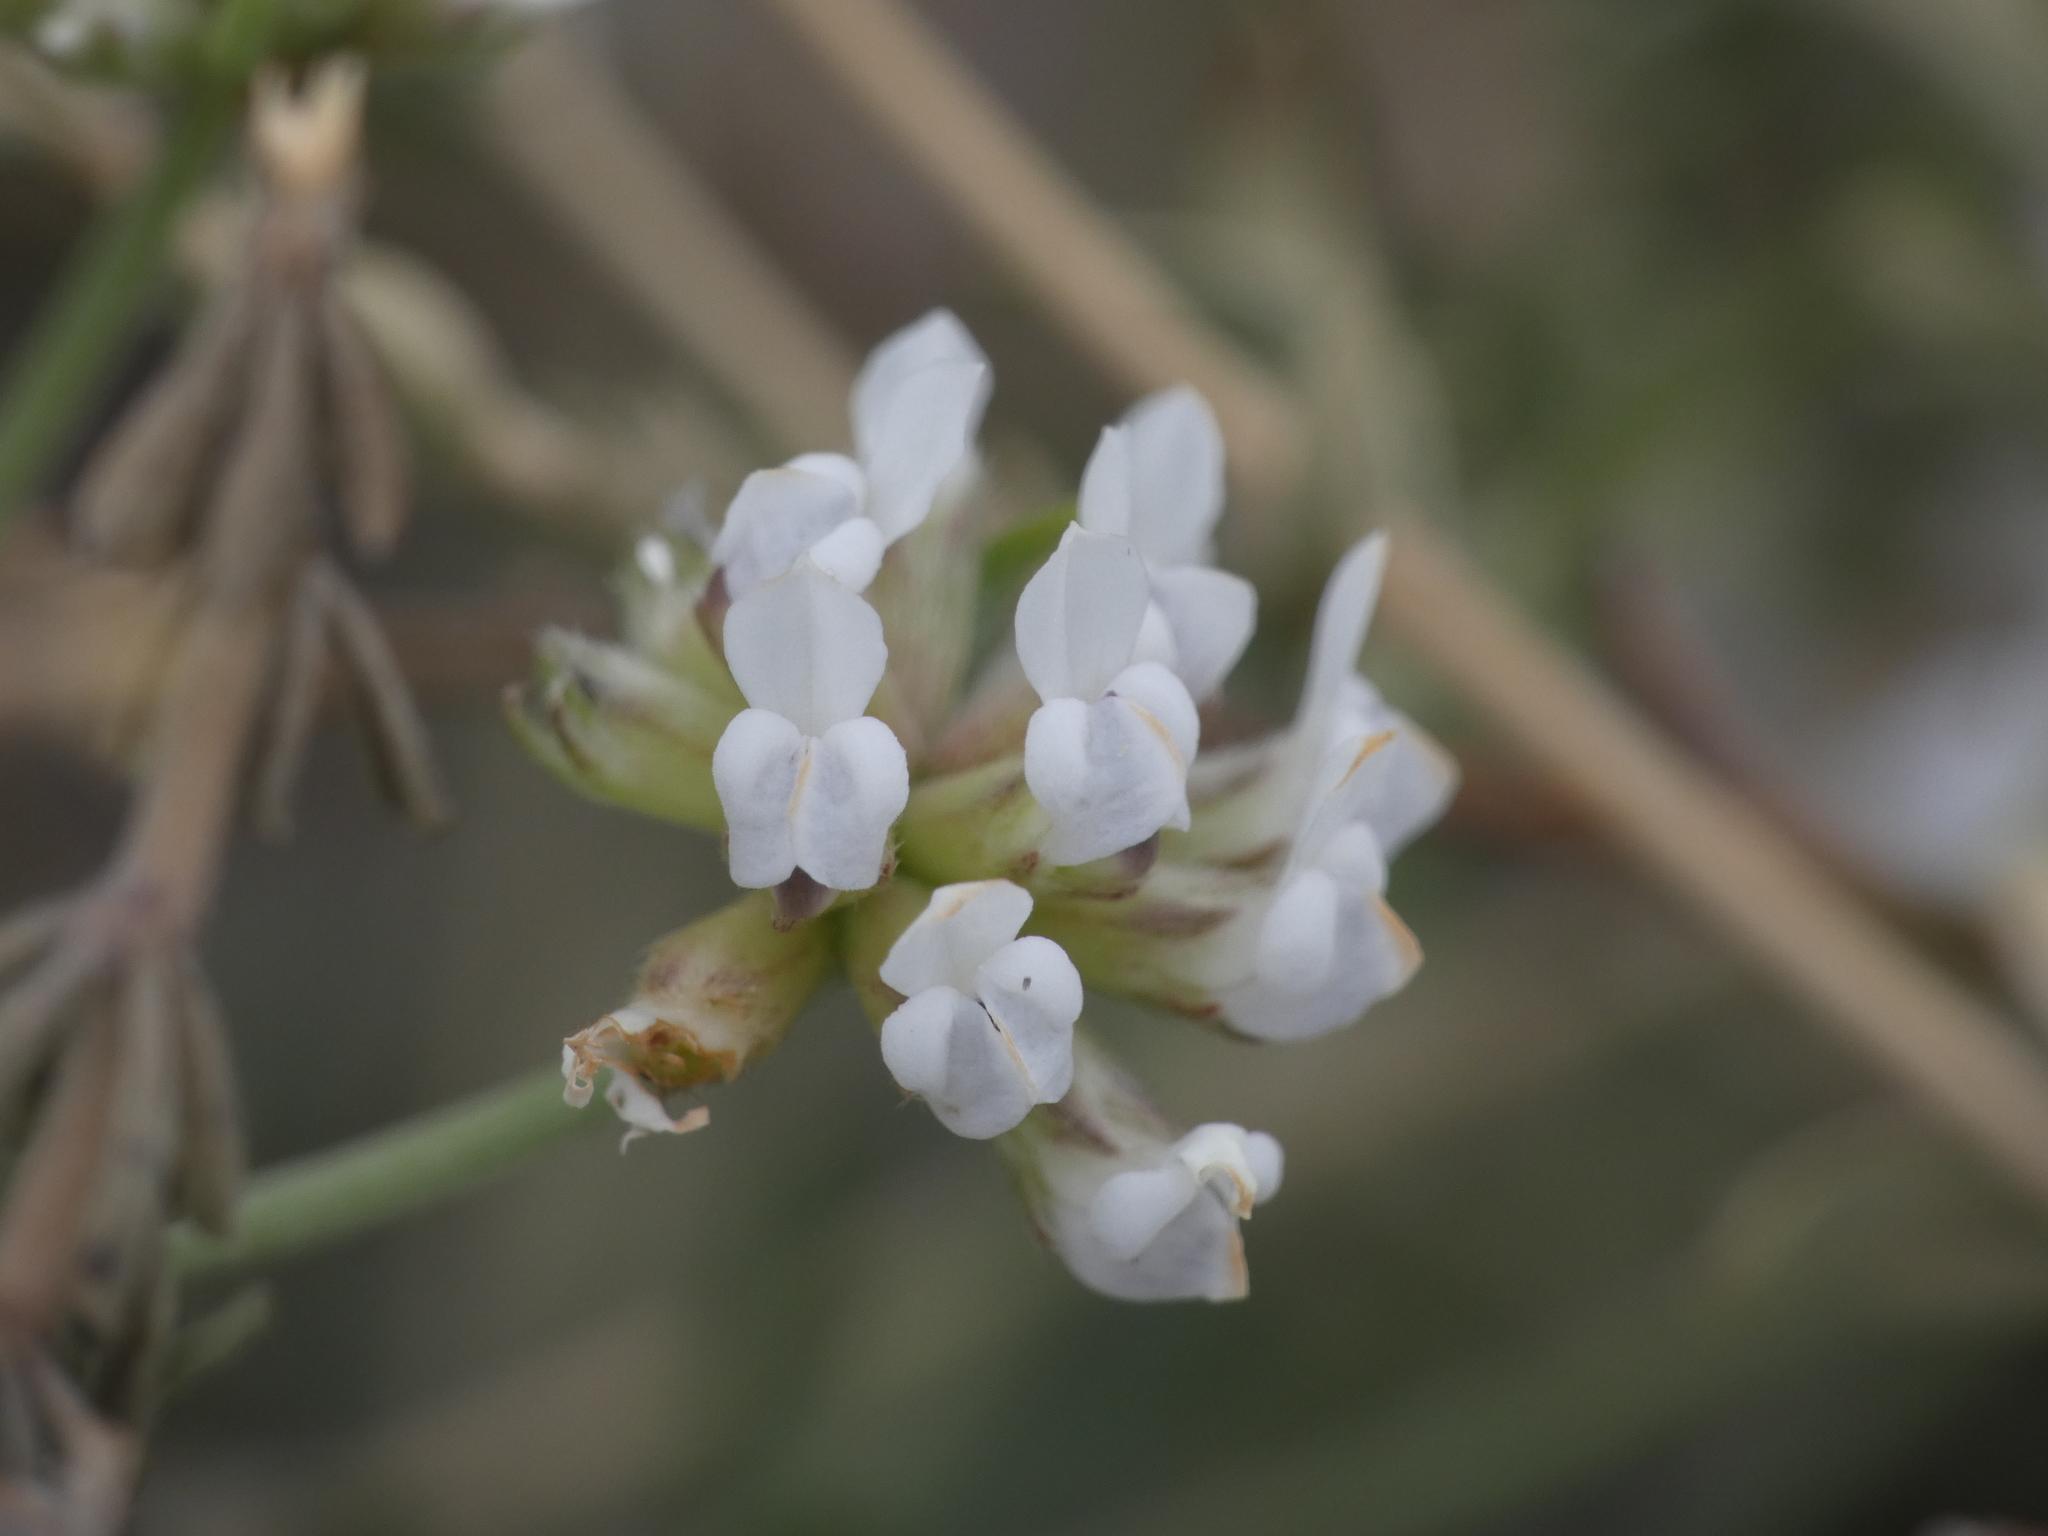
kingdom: Plantae
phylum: Tracheophyta
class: Magnoliopsida
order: Fabales
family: Fabaceae
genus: Lotus
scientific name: Lotus dorycnium
